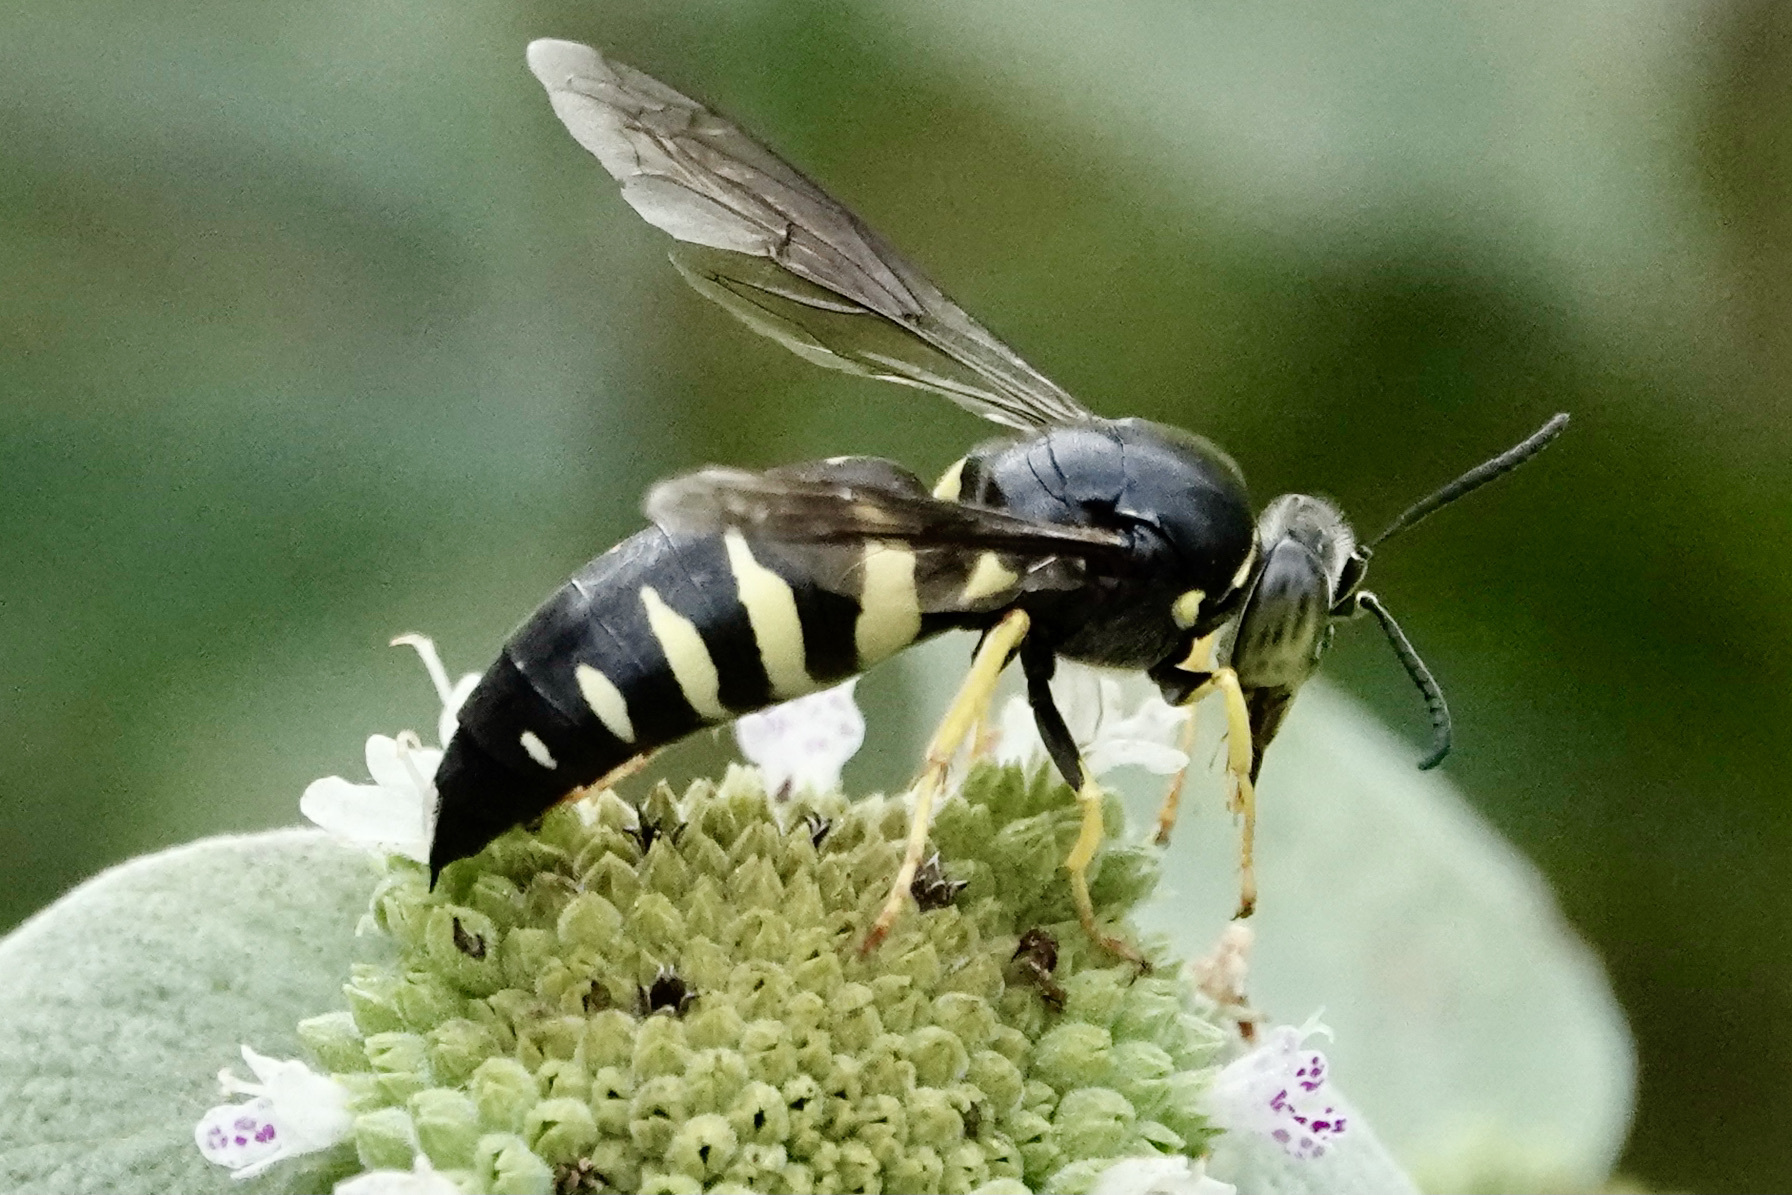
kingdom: Animalia
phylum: Arthropoda
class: Insecta
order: Hymenoptera
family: Crabronidae
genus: Bicyrtes
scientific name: Bicyrtes quadrifasciatus
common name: Four-banded stink bug hunter wasp
